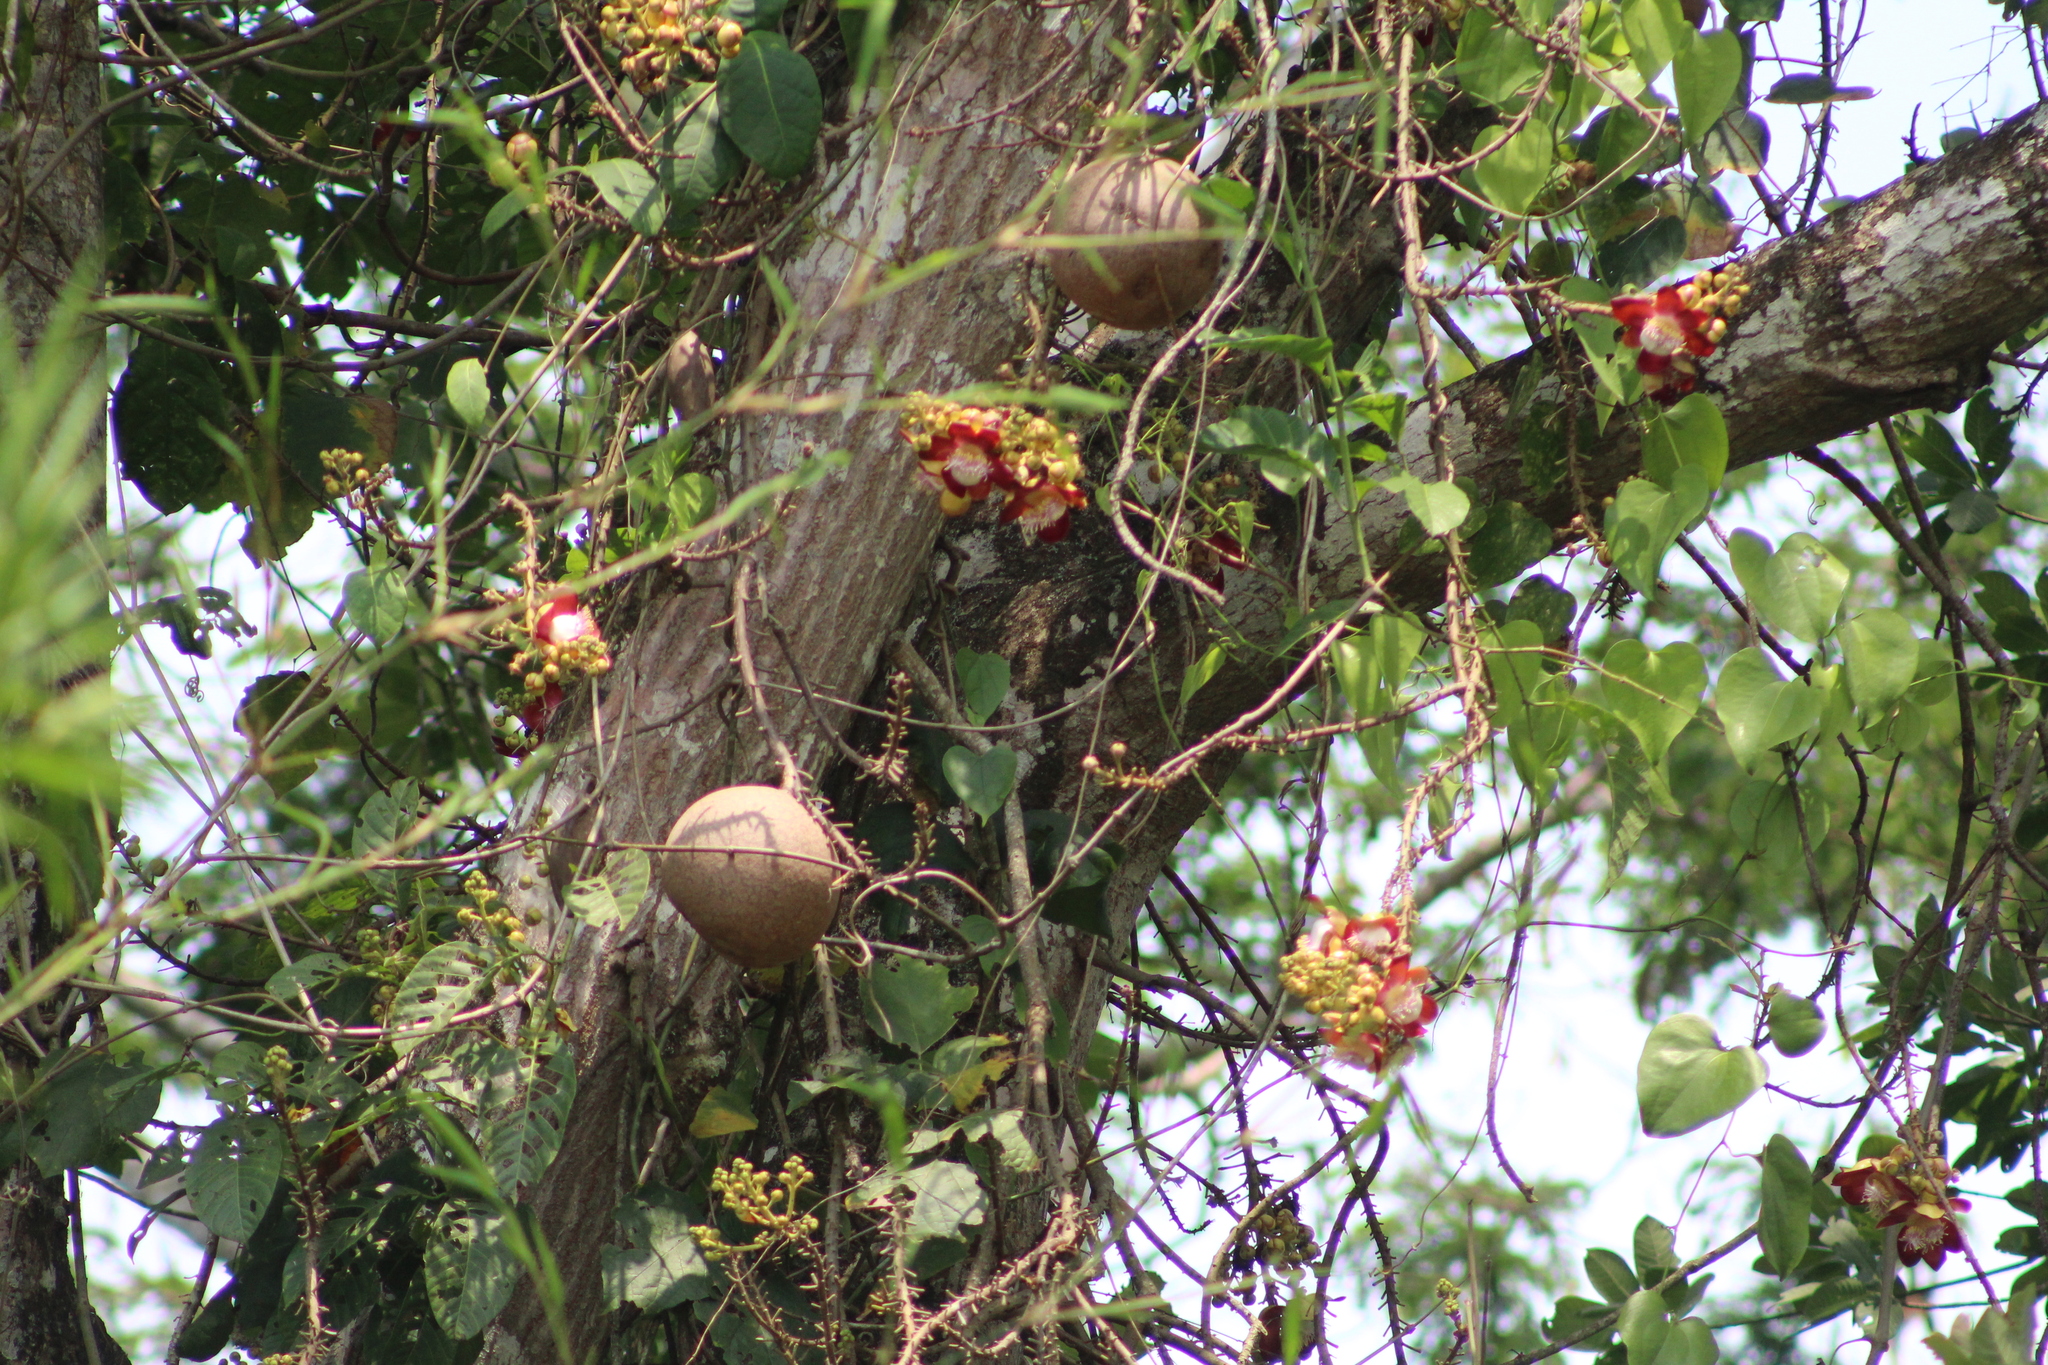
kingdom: Plantae
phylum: Tracheophyta
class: Magnoliopsida
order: Ericales
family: Lecythidaceae
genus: Couroupita
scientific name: Couroupita guianensis
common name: Cannonball tree
